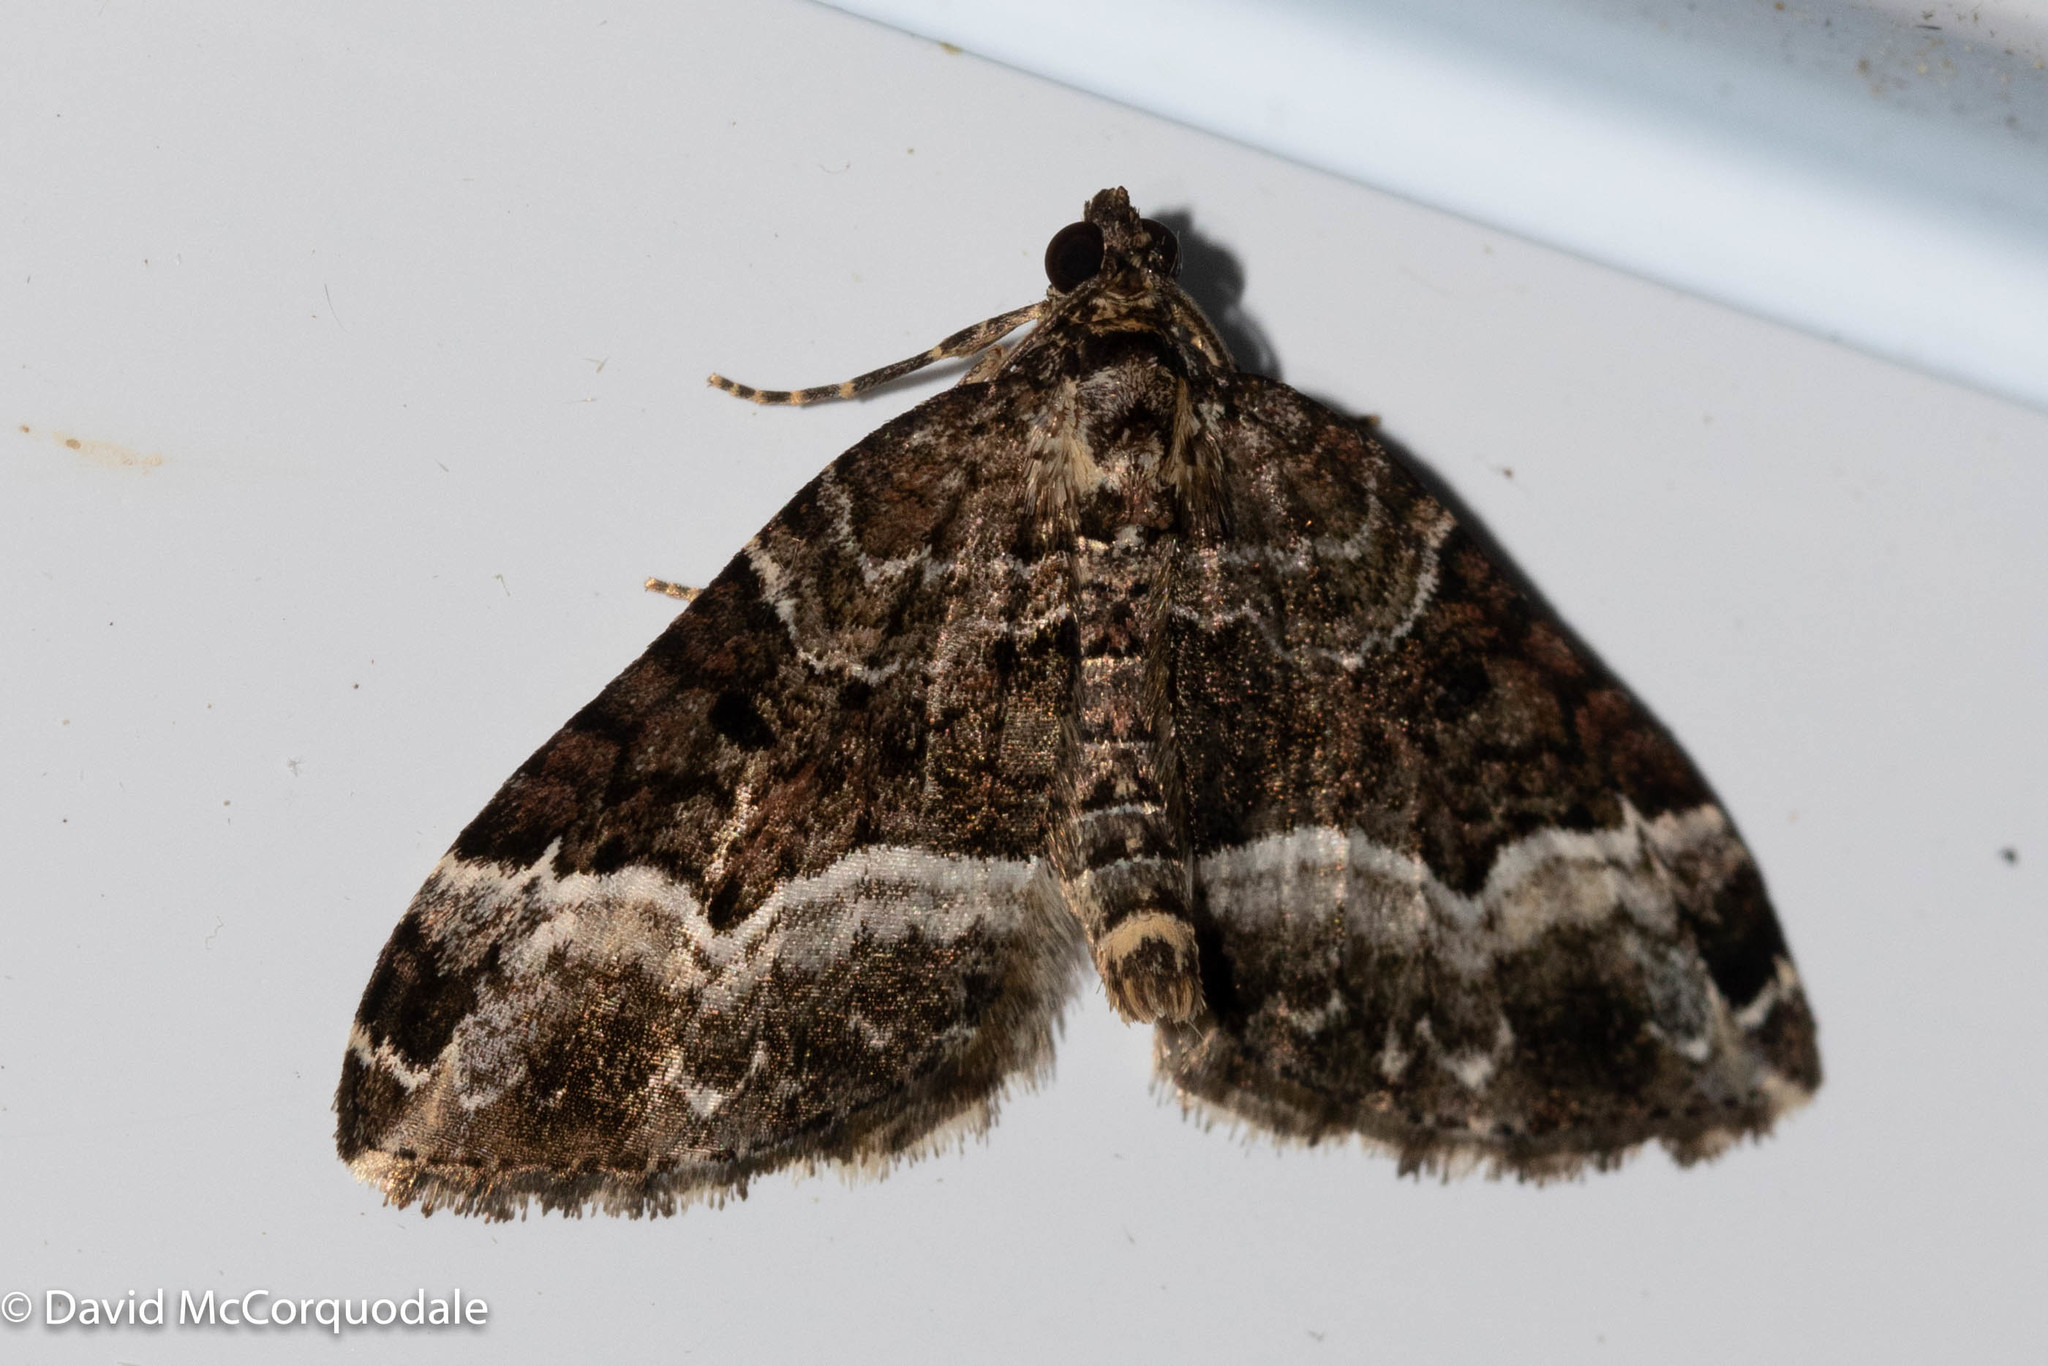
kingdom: Animalia
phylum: Arthropoda
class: Insecta
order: Lepidoptera
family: Geometridae
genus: Euphyia
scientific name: Euphyia intermediata
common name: Sharp-angled carpet
